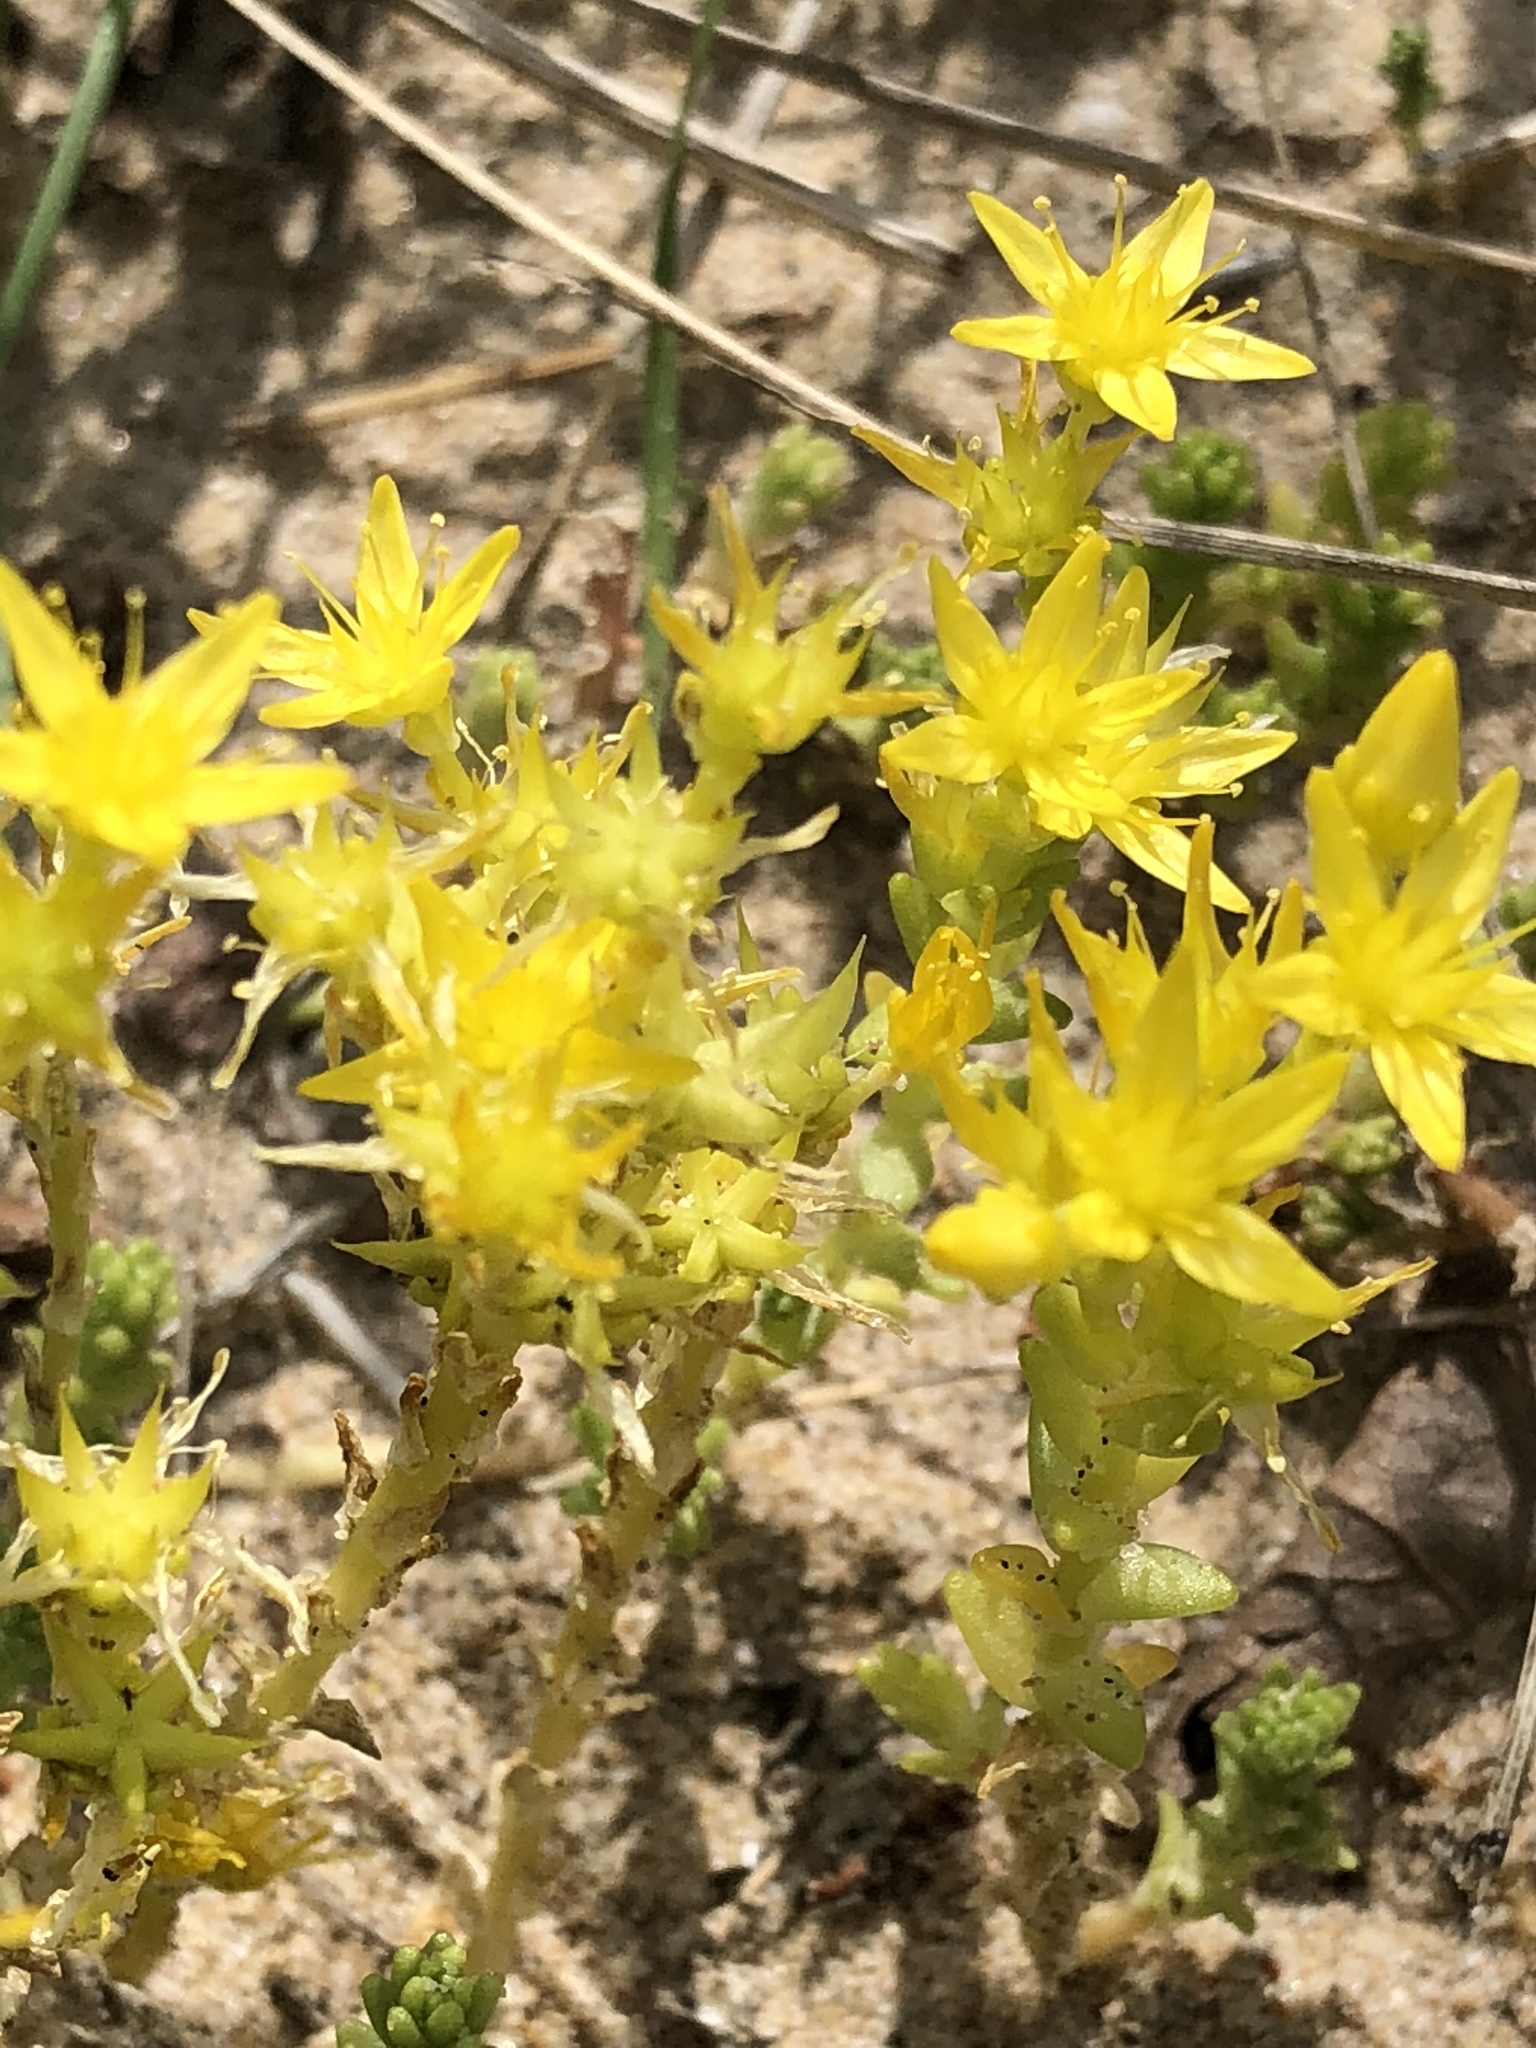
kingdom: Plantae
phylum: Tracheophyta
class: Magnoliopsida
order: Saxifragales
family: Crassulaceae
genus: Sedum
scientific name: Sedum acre
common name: Biting stonecrop
